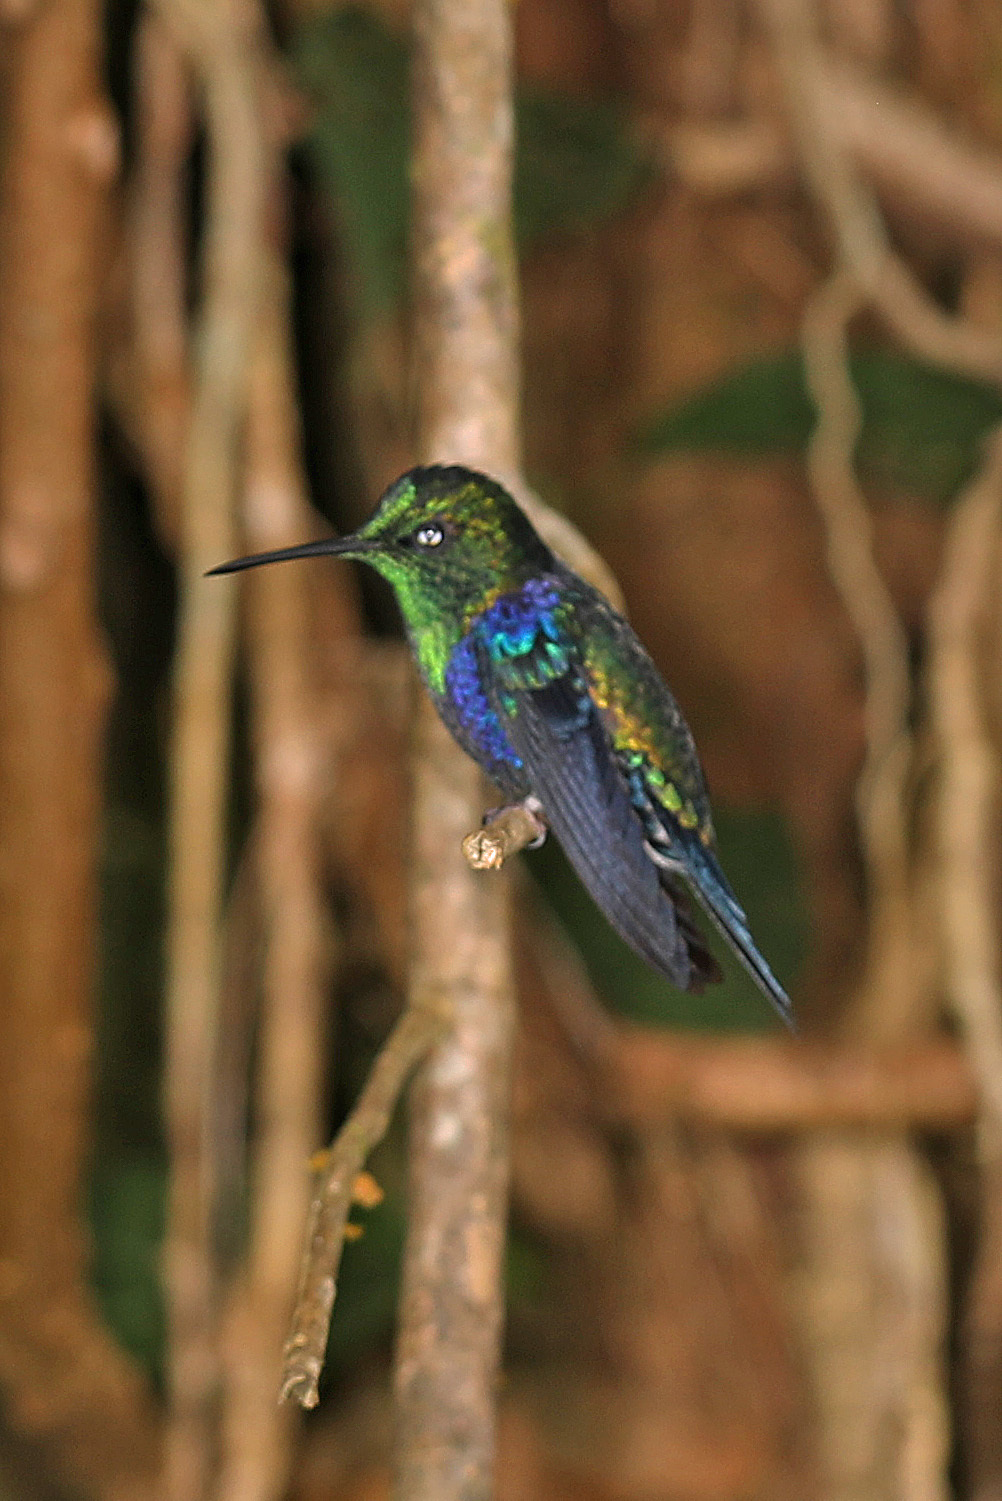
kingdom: Animalia
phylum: Chordata
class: Aves
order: Apodiformes
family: Trochilidae
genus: Thalurania
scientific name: Thalurania colombica
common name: Crowned woodnymph
